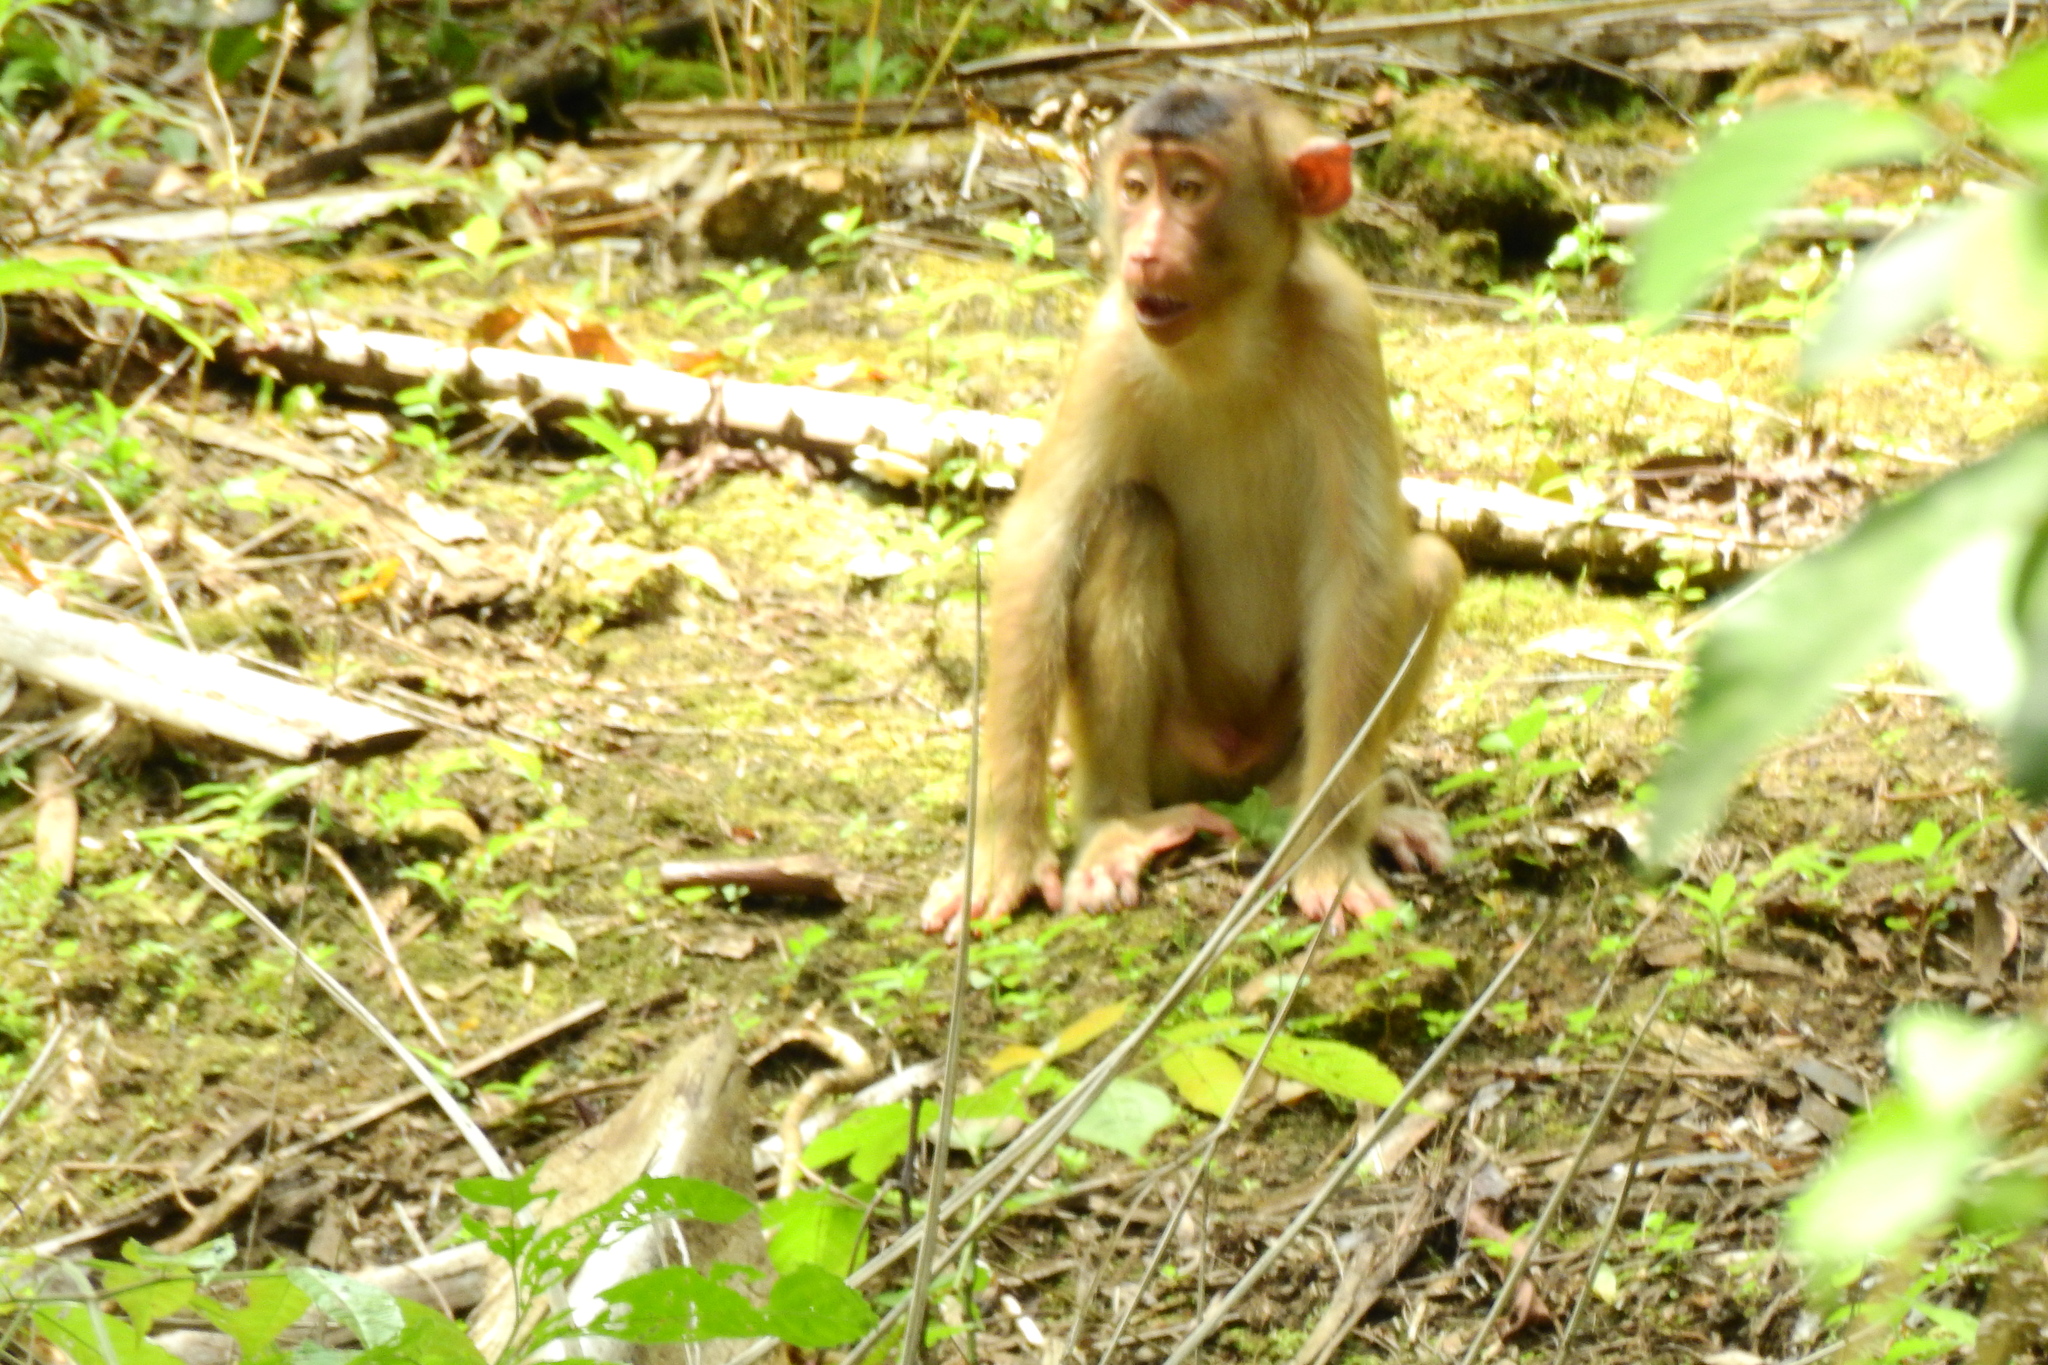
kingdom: Animalia
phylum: Chordata
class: Mammalia
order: Primates
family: Cercopithecidae
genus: Macaca
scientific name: Macaca nemestrina
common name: Southern pig-tailed macaque
